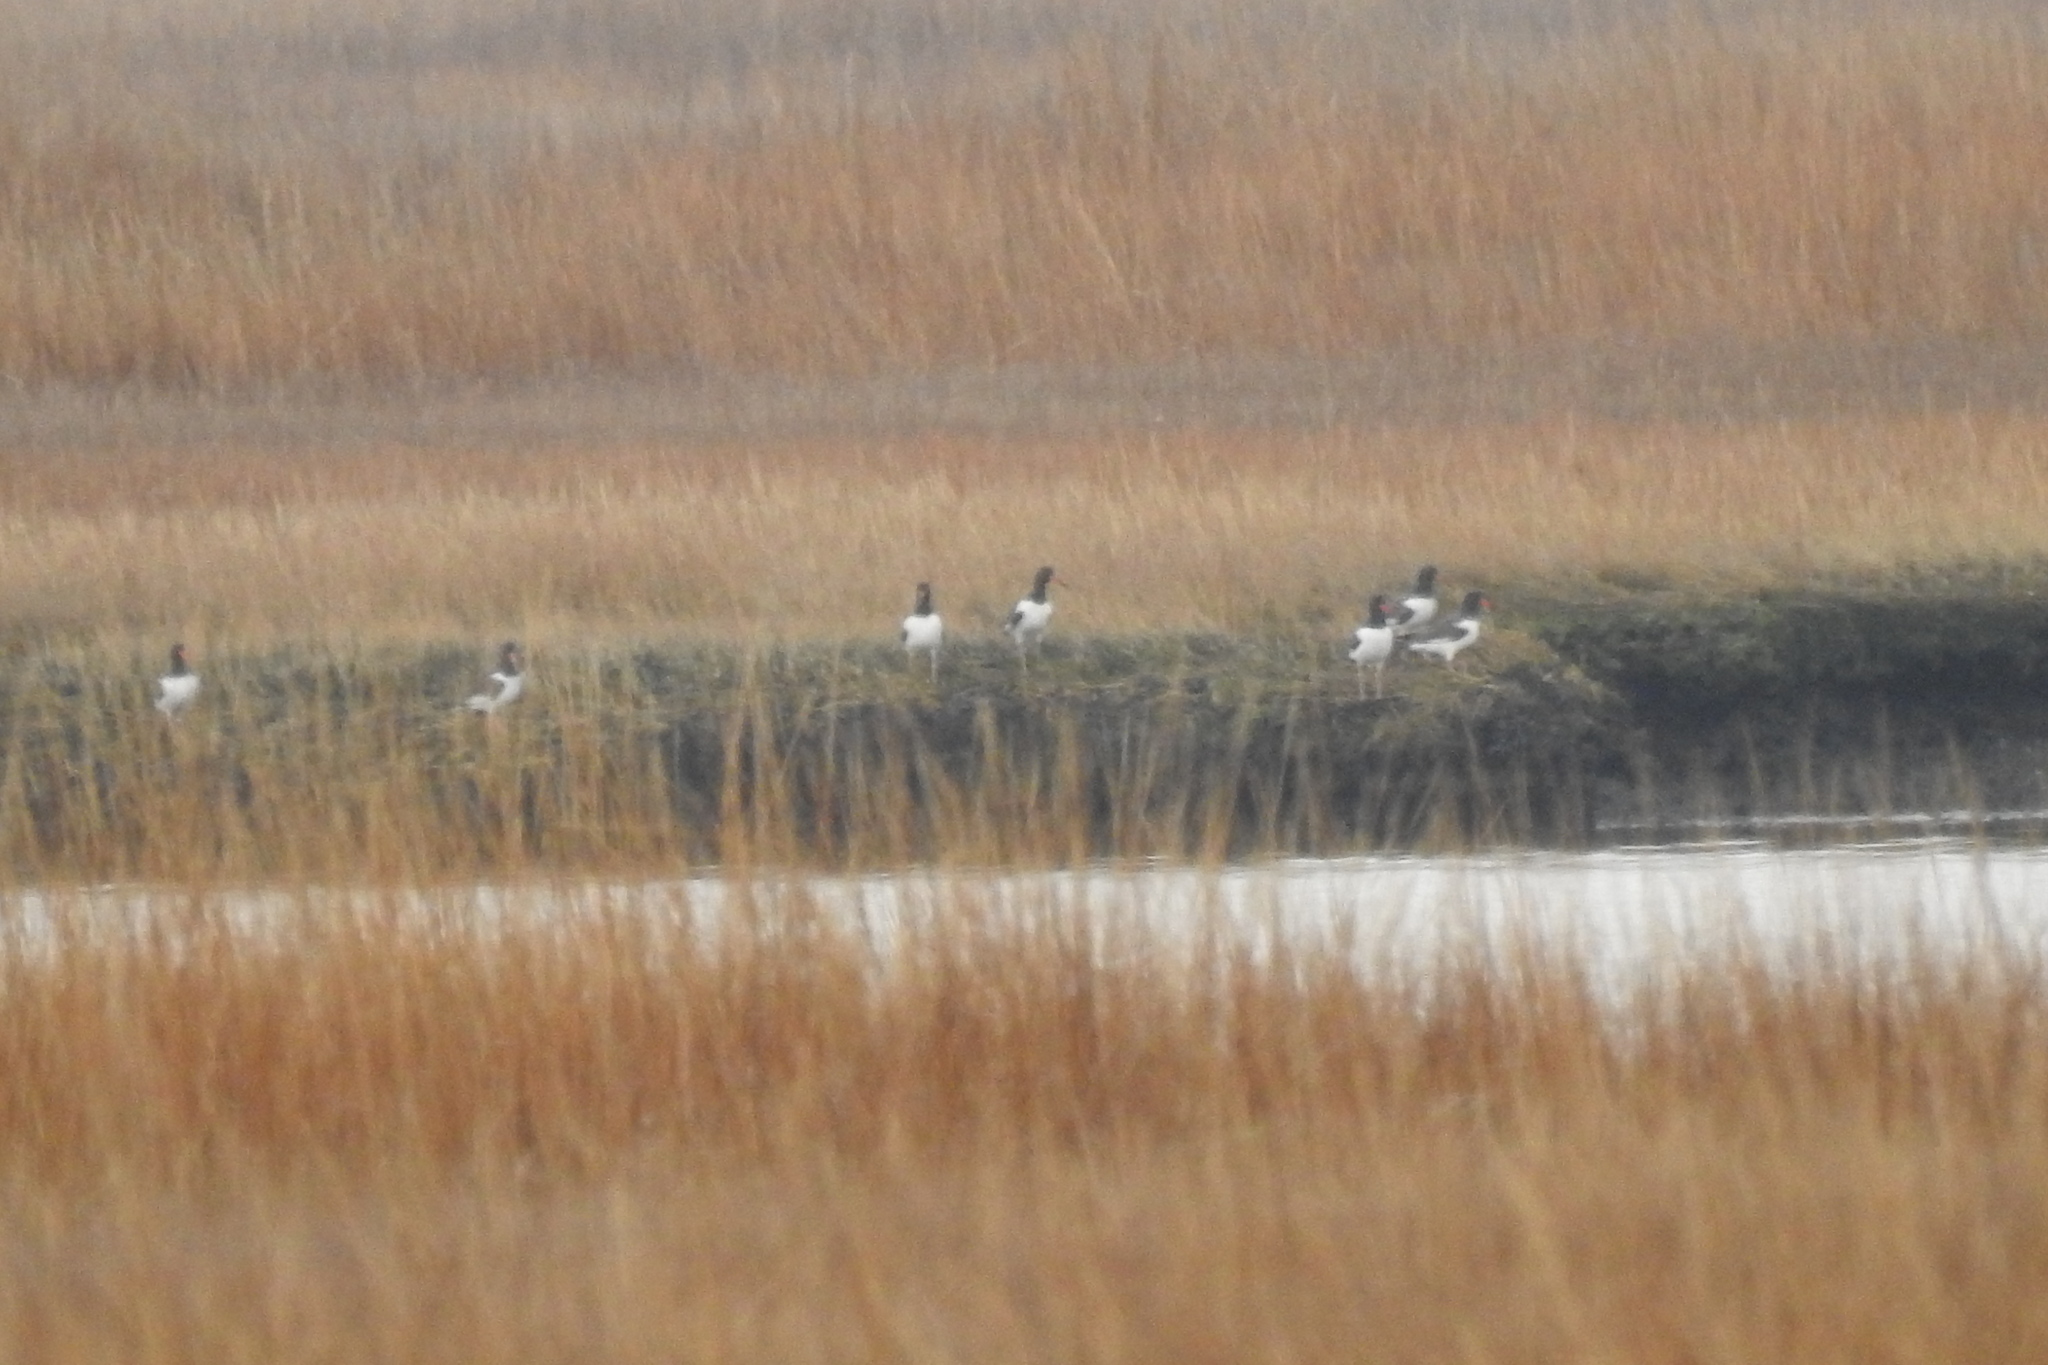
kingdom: Animalia
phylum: Chordata
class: Aves
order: Charadriiformes
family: Haematopodidae
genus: Haematopus
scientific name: Haematopus palliatus
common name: American oystercatcher
